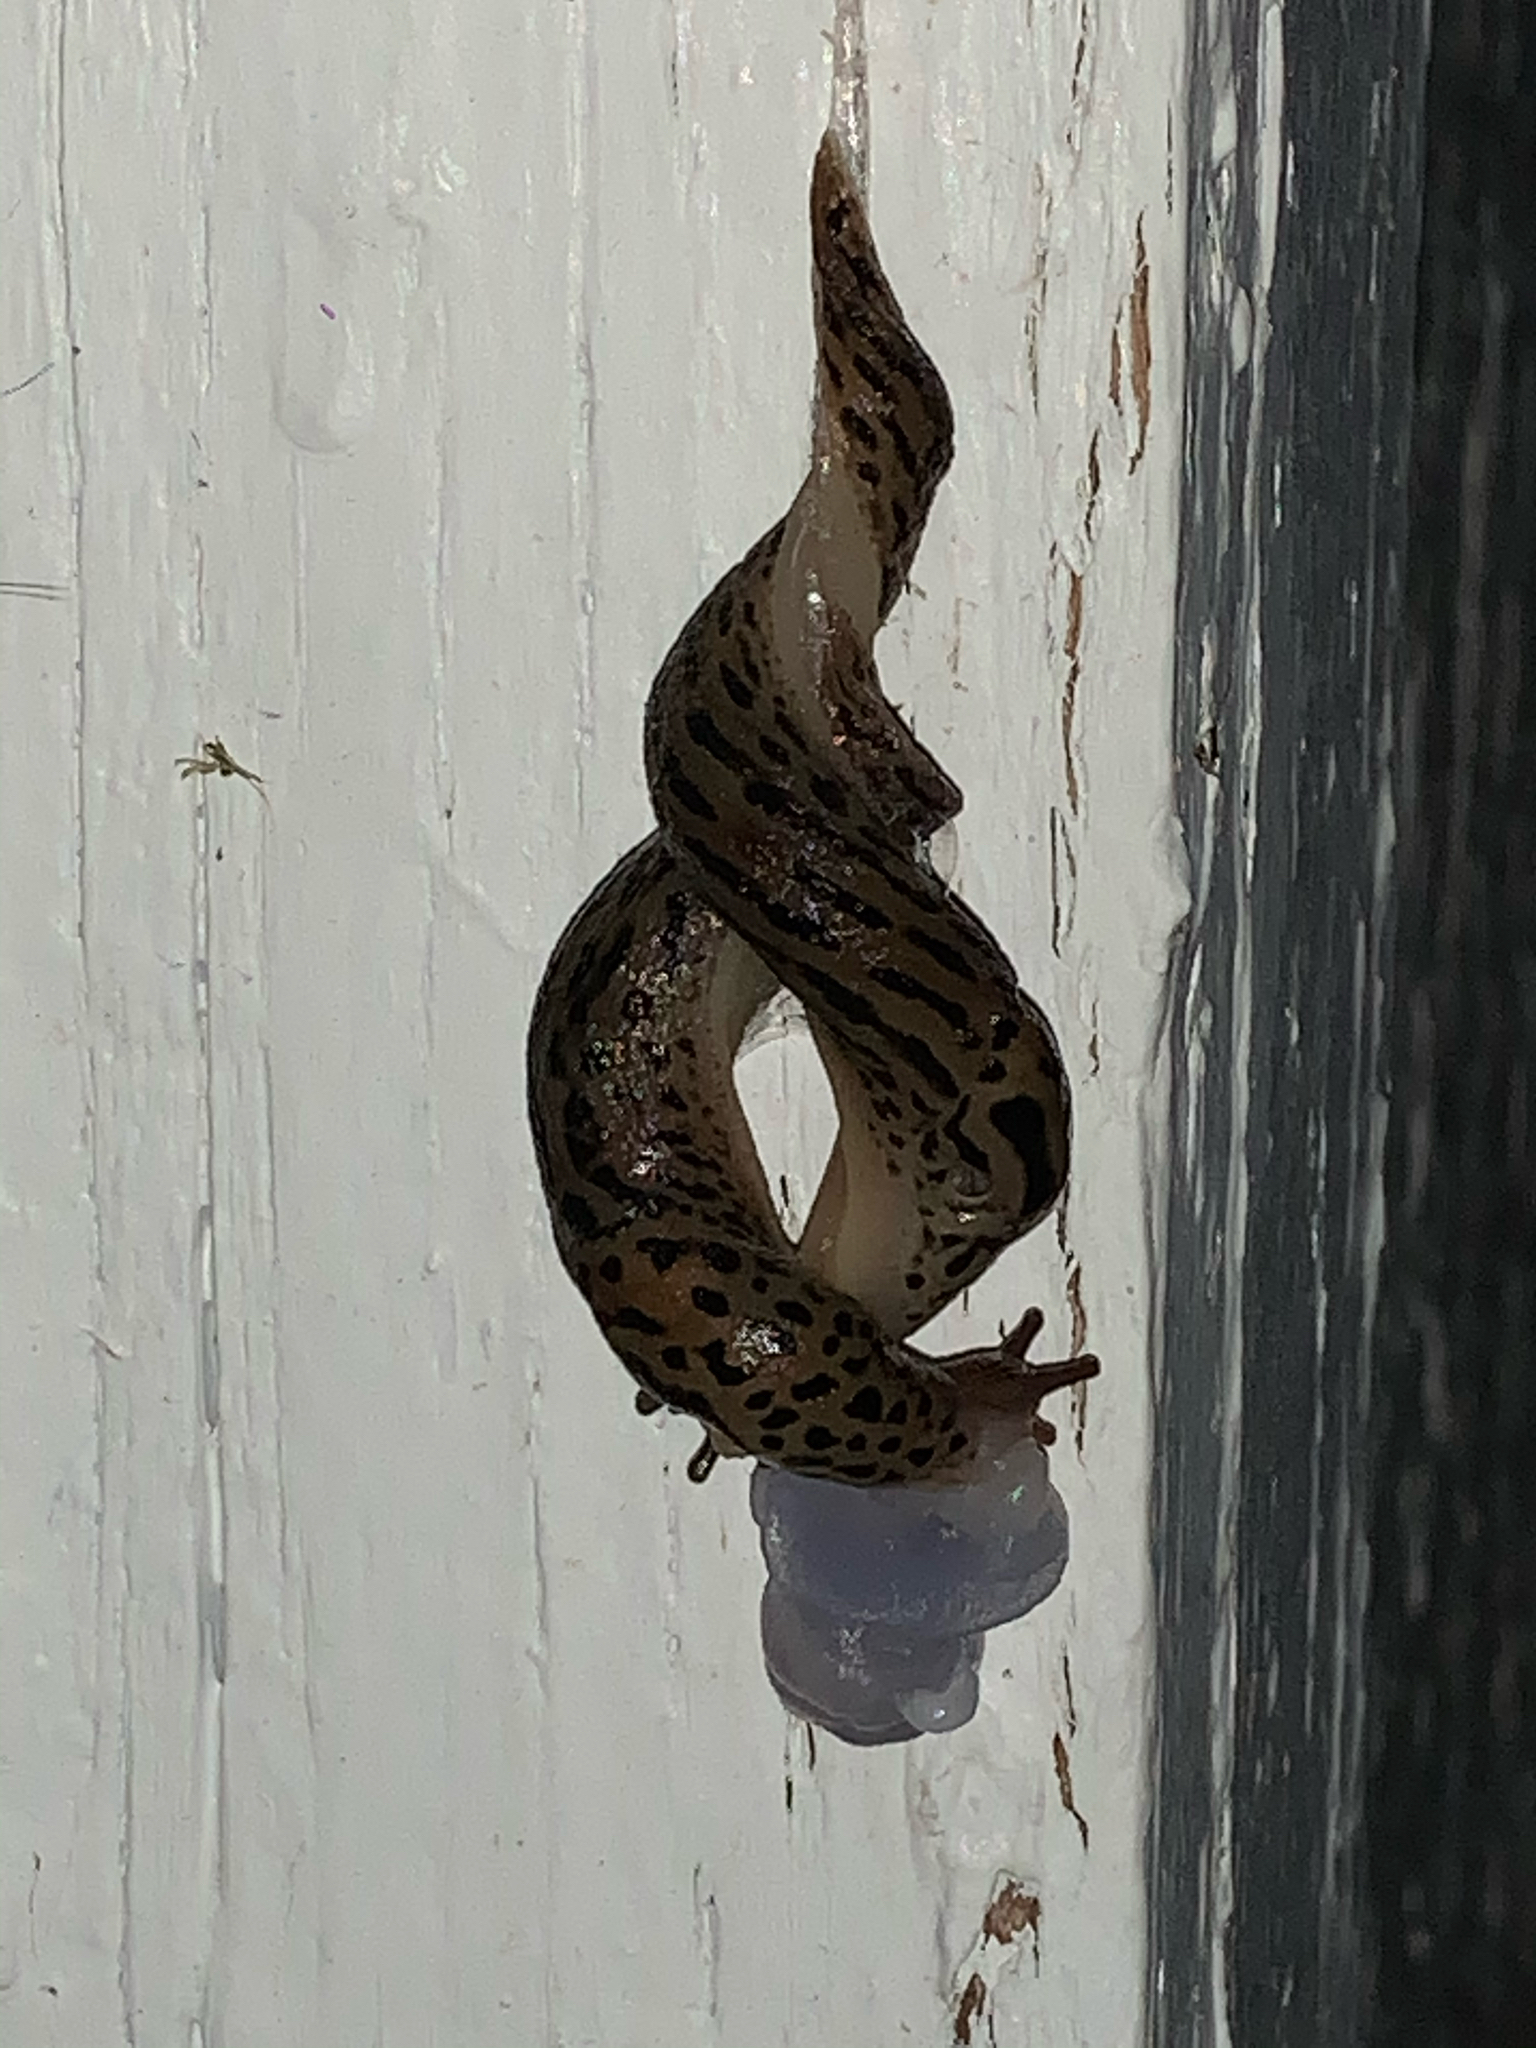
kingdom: Animalia
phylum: Mollusca
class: Gastropoda
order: Stylommatophora
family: Limacidae
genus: Limax
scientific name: Limax maximus
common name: Great grey slug
